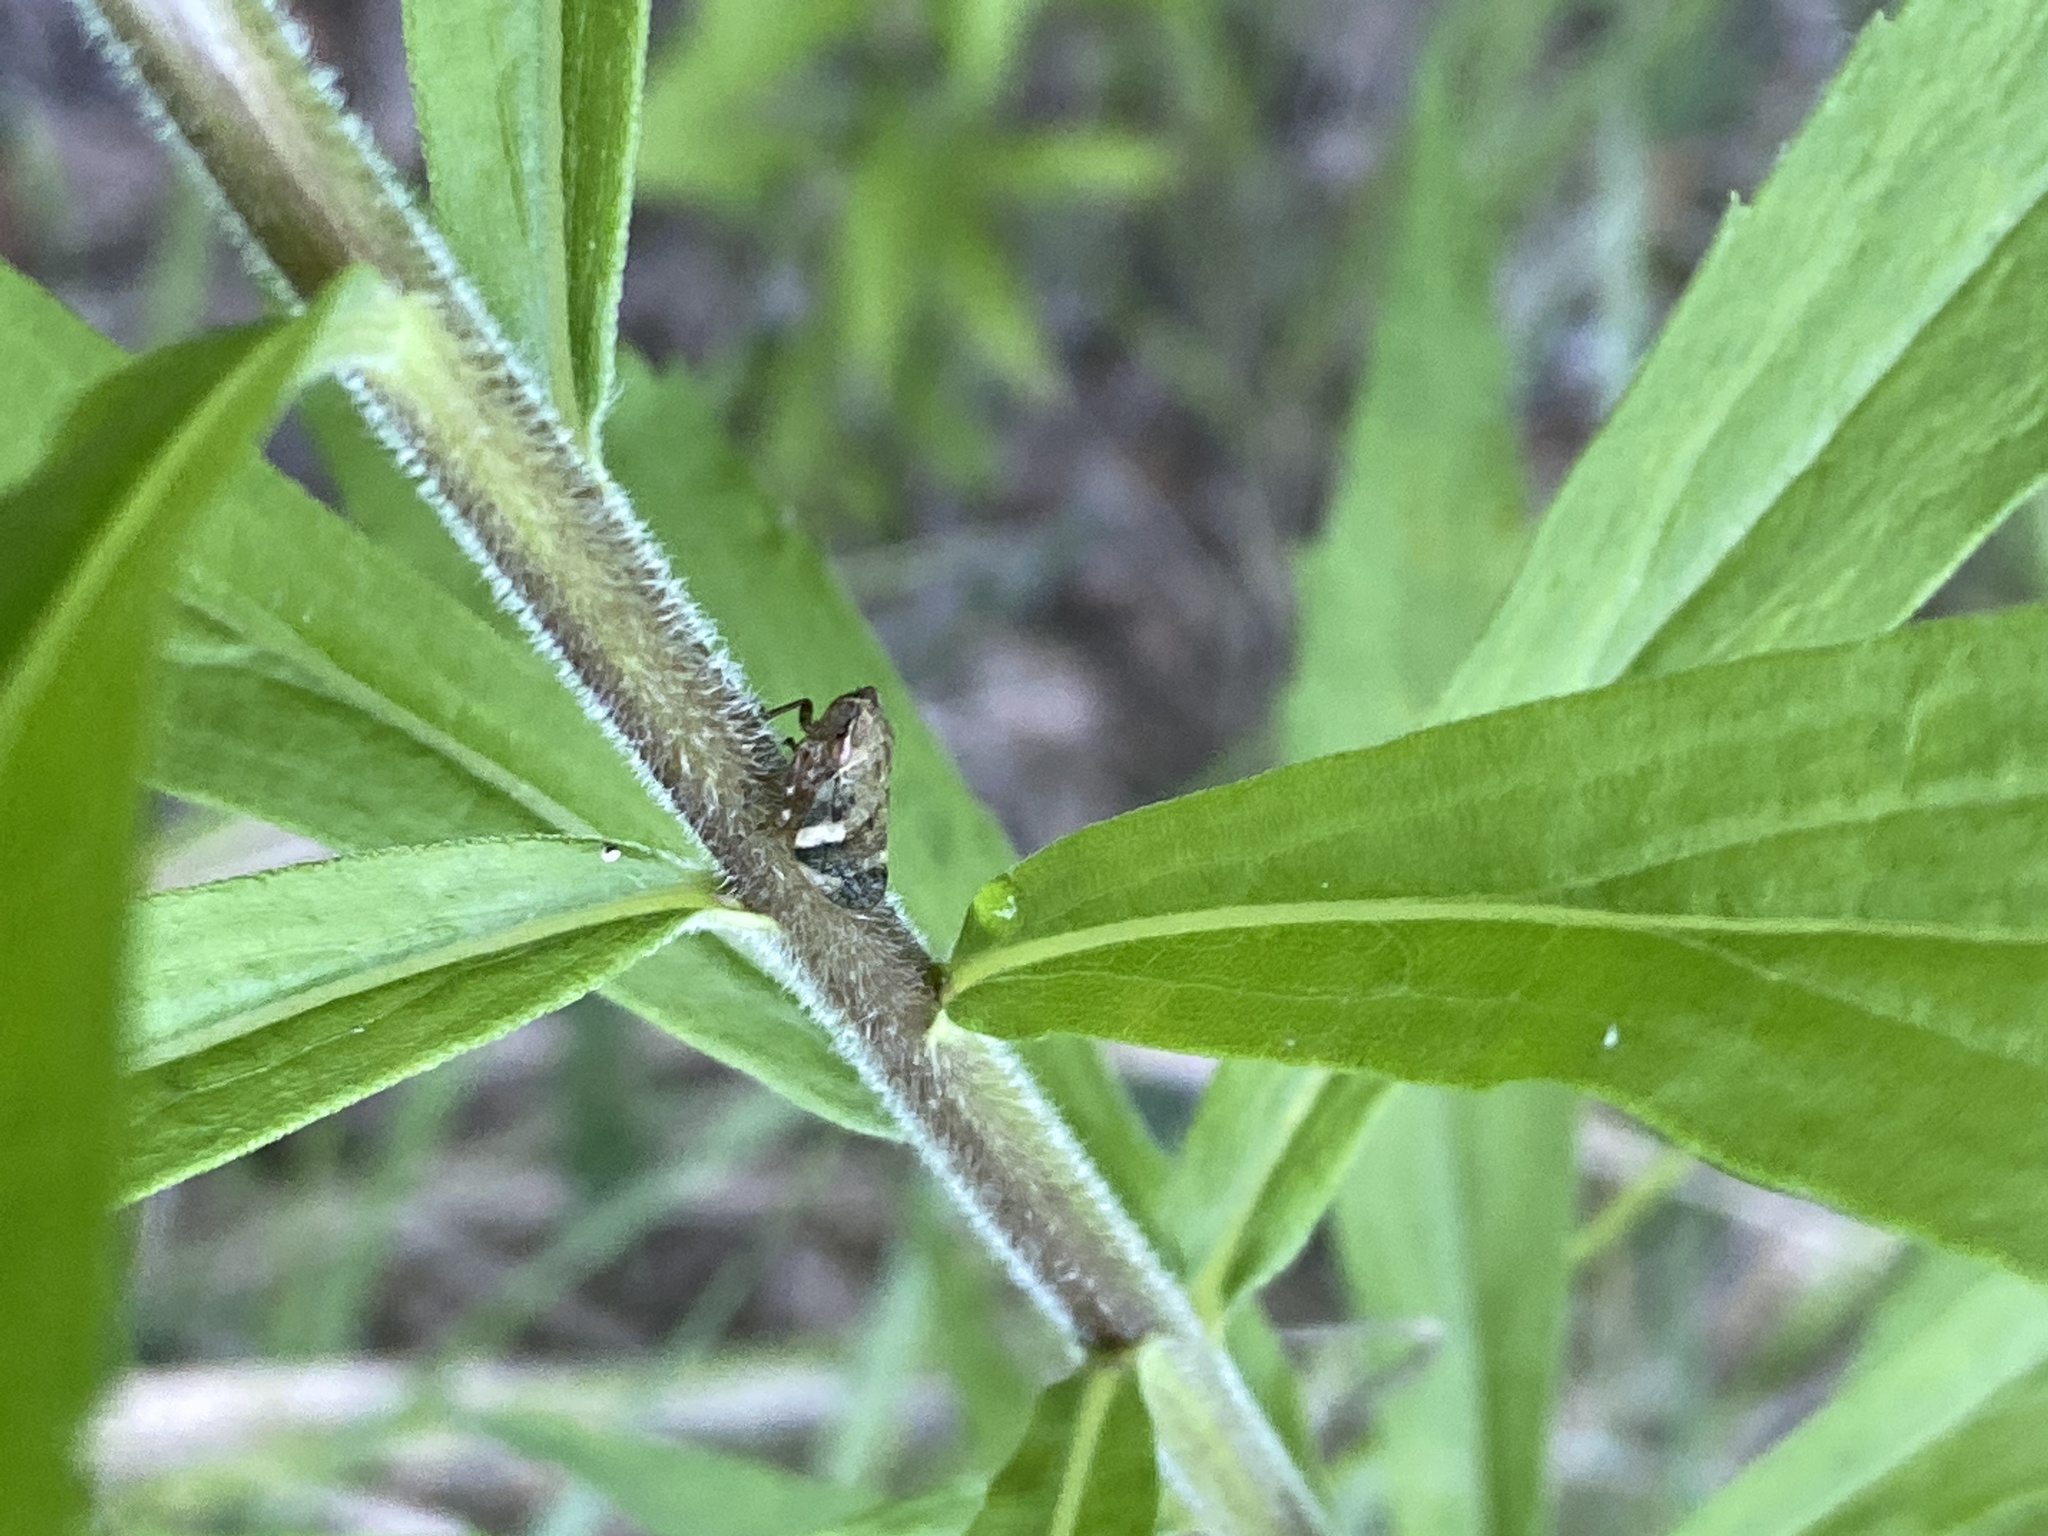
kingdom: Animalia
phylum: Arthropoda
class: Insecta
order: Hemiptera
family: Aphrophoridae
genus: Aphrophora
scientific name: Aphrophora alni
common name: European alder spittlebug
